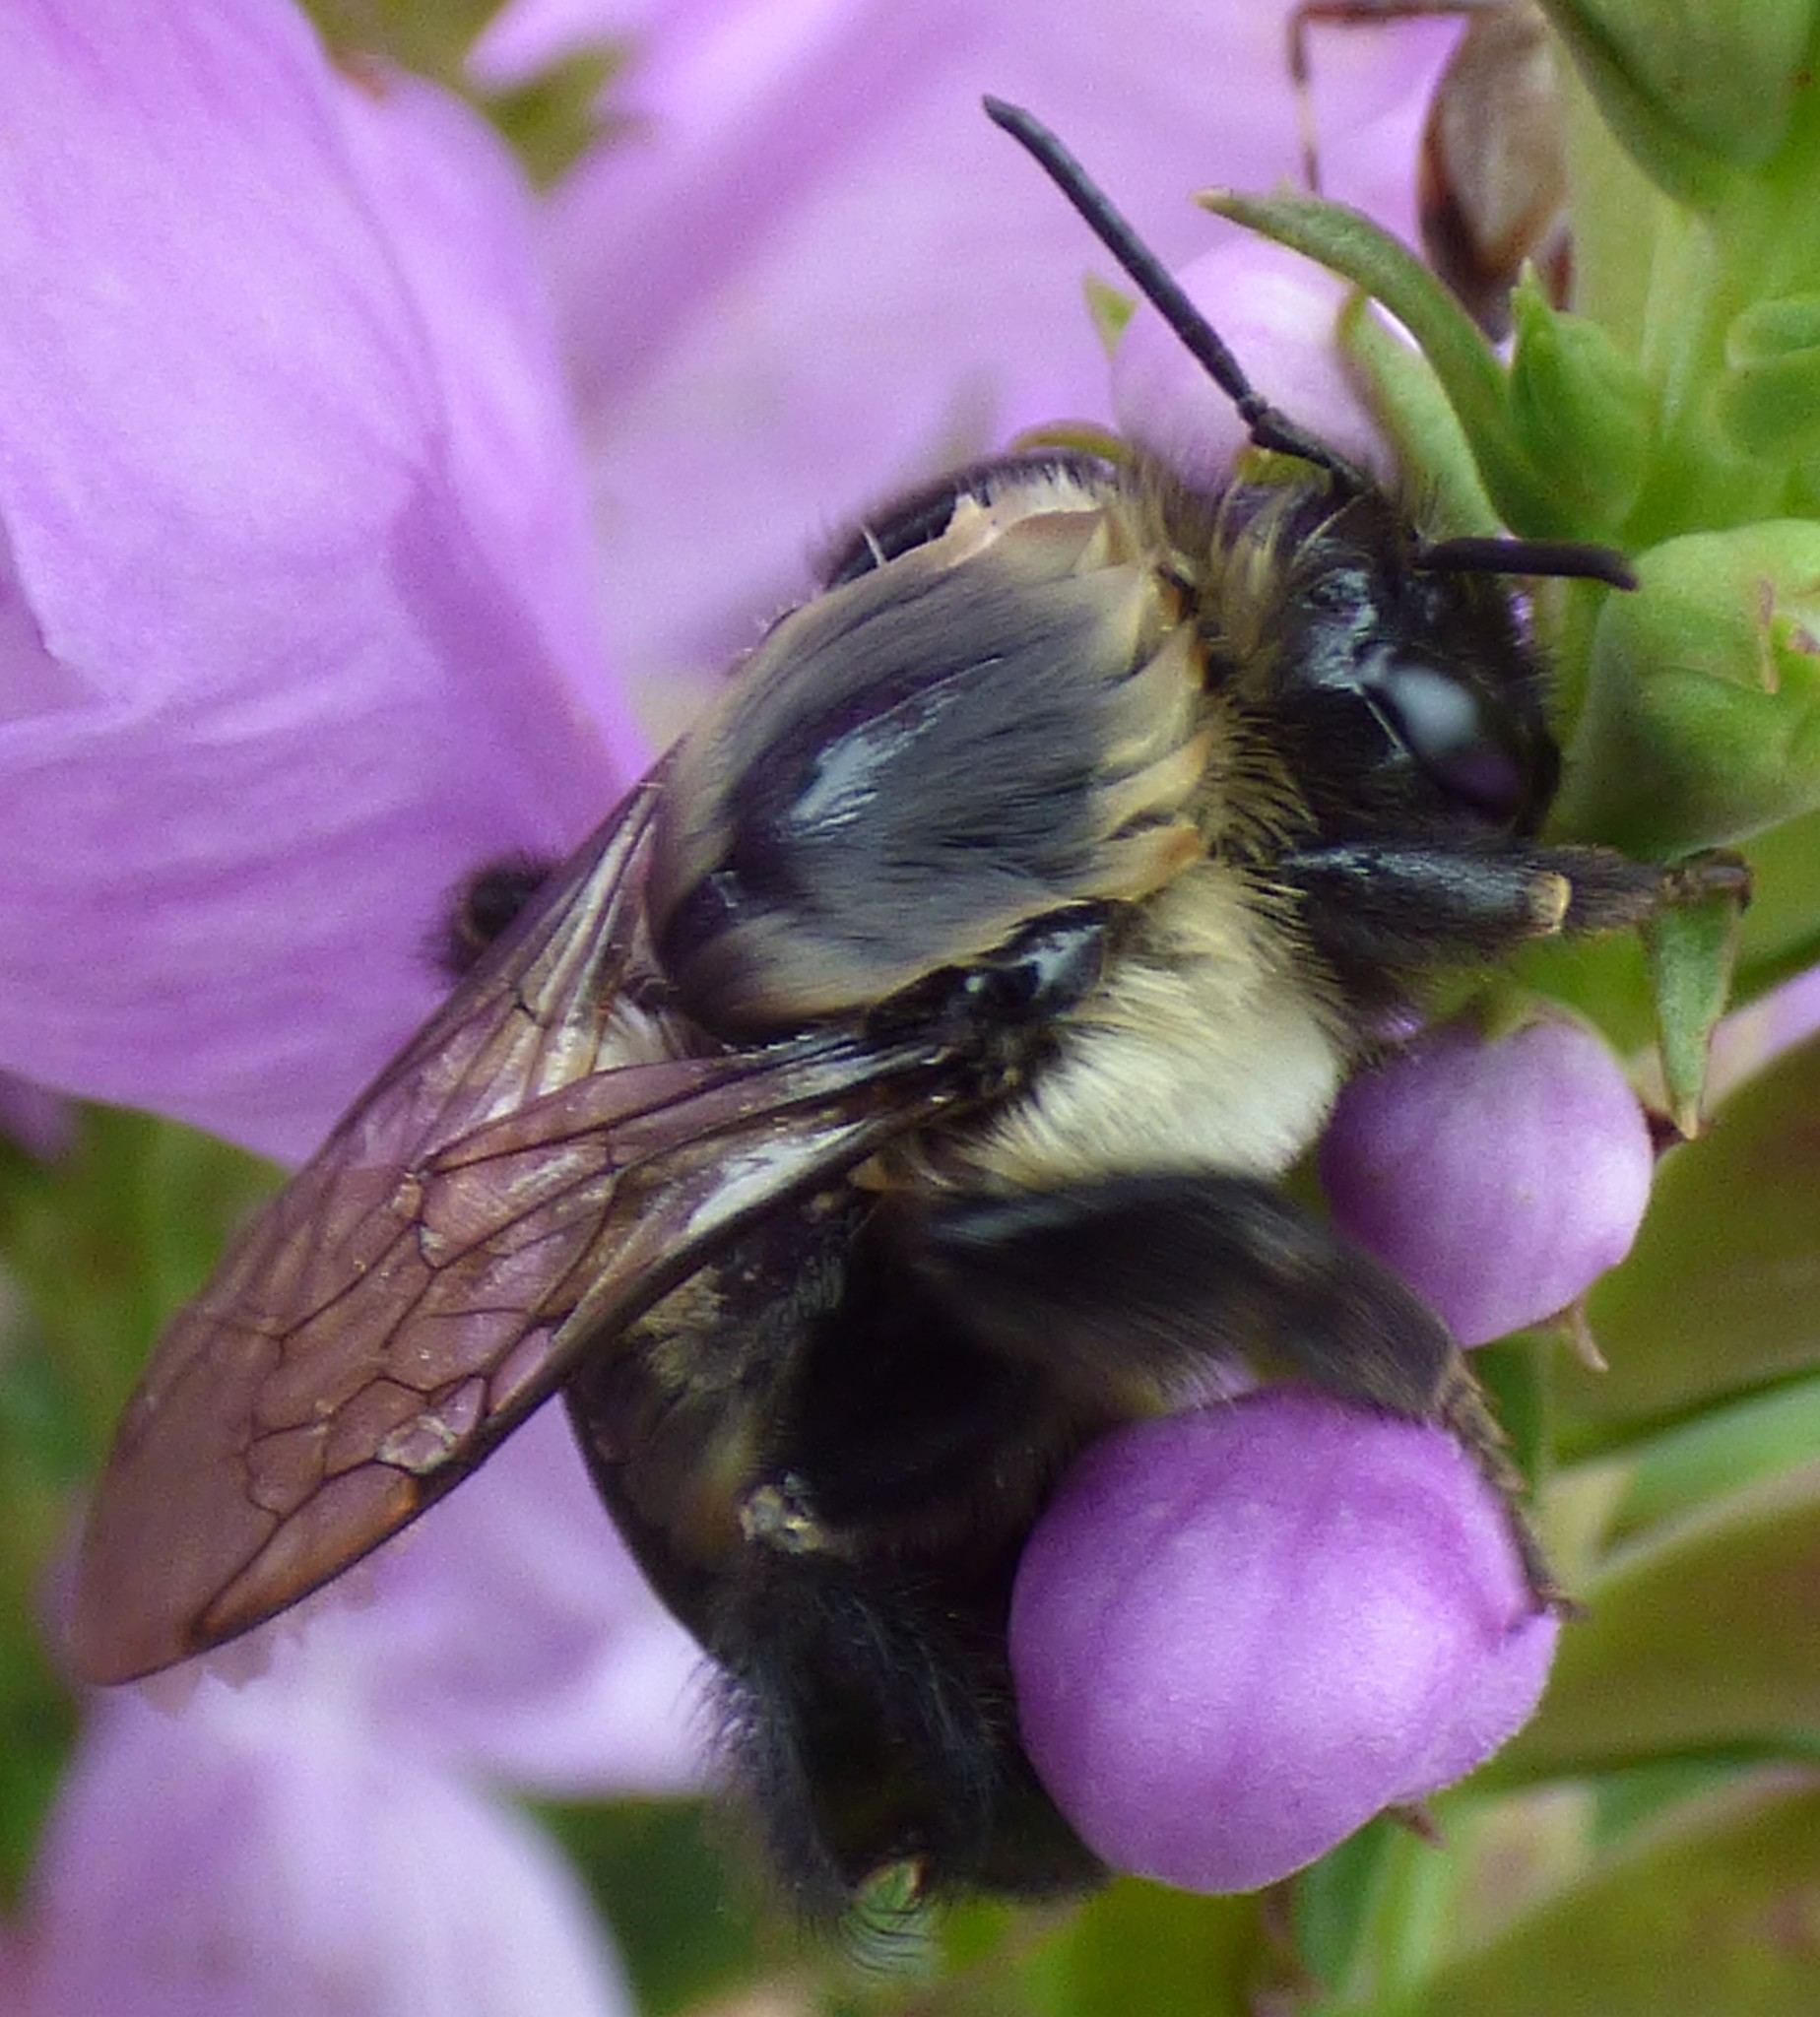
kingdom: Animalia
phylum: Arthropoda
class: Insecta
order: Hymenoptera
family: Apidae
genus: Bombus
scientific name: Bombus impatiens
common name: Common eastern bumble bee
